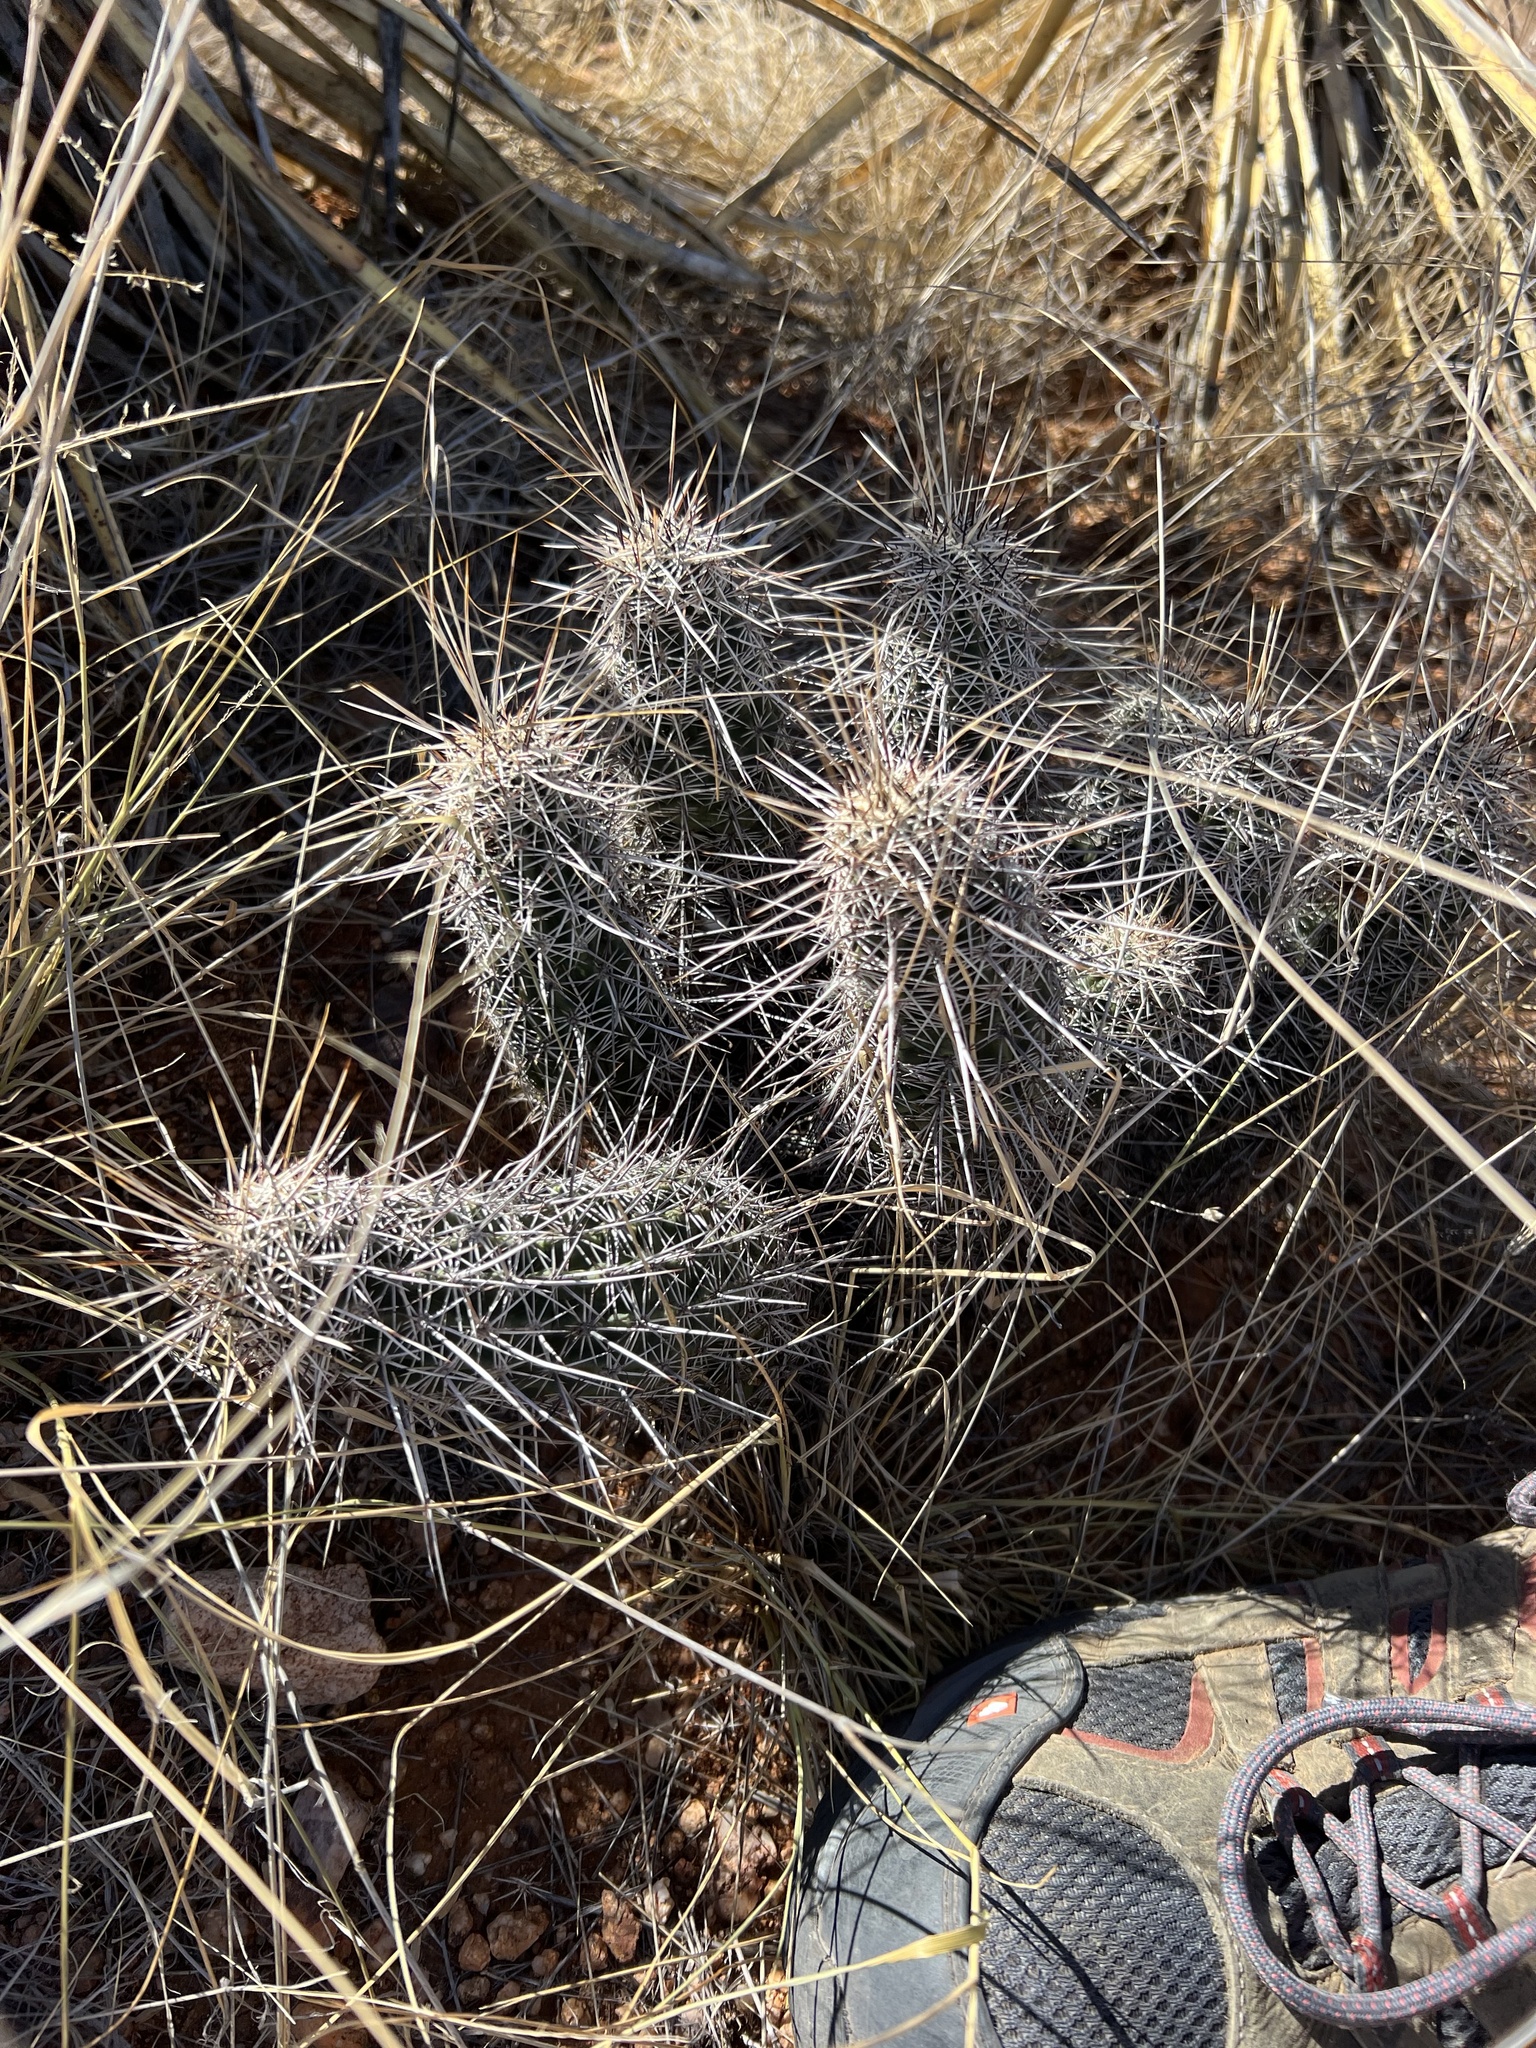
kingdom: Plantae
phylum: Tracheophyta
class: Magnoliopsida
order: Caryophyllales
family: Cactaceae
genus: Echinocereus
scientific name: Echinocereus fasciculatus
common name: Bundle hedgehog
